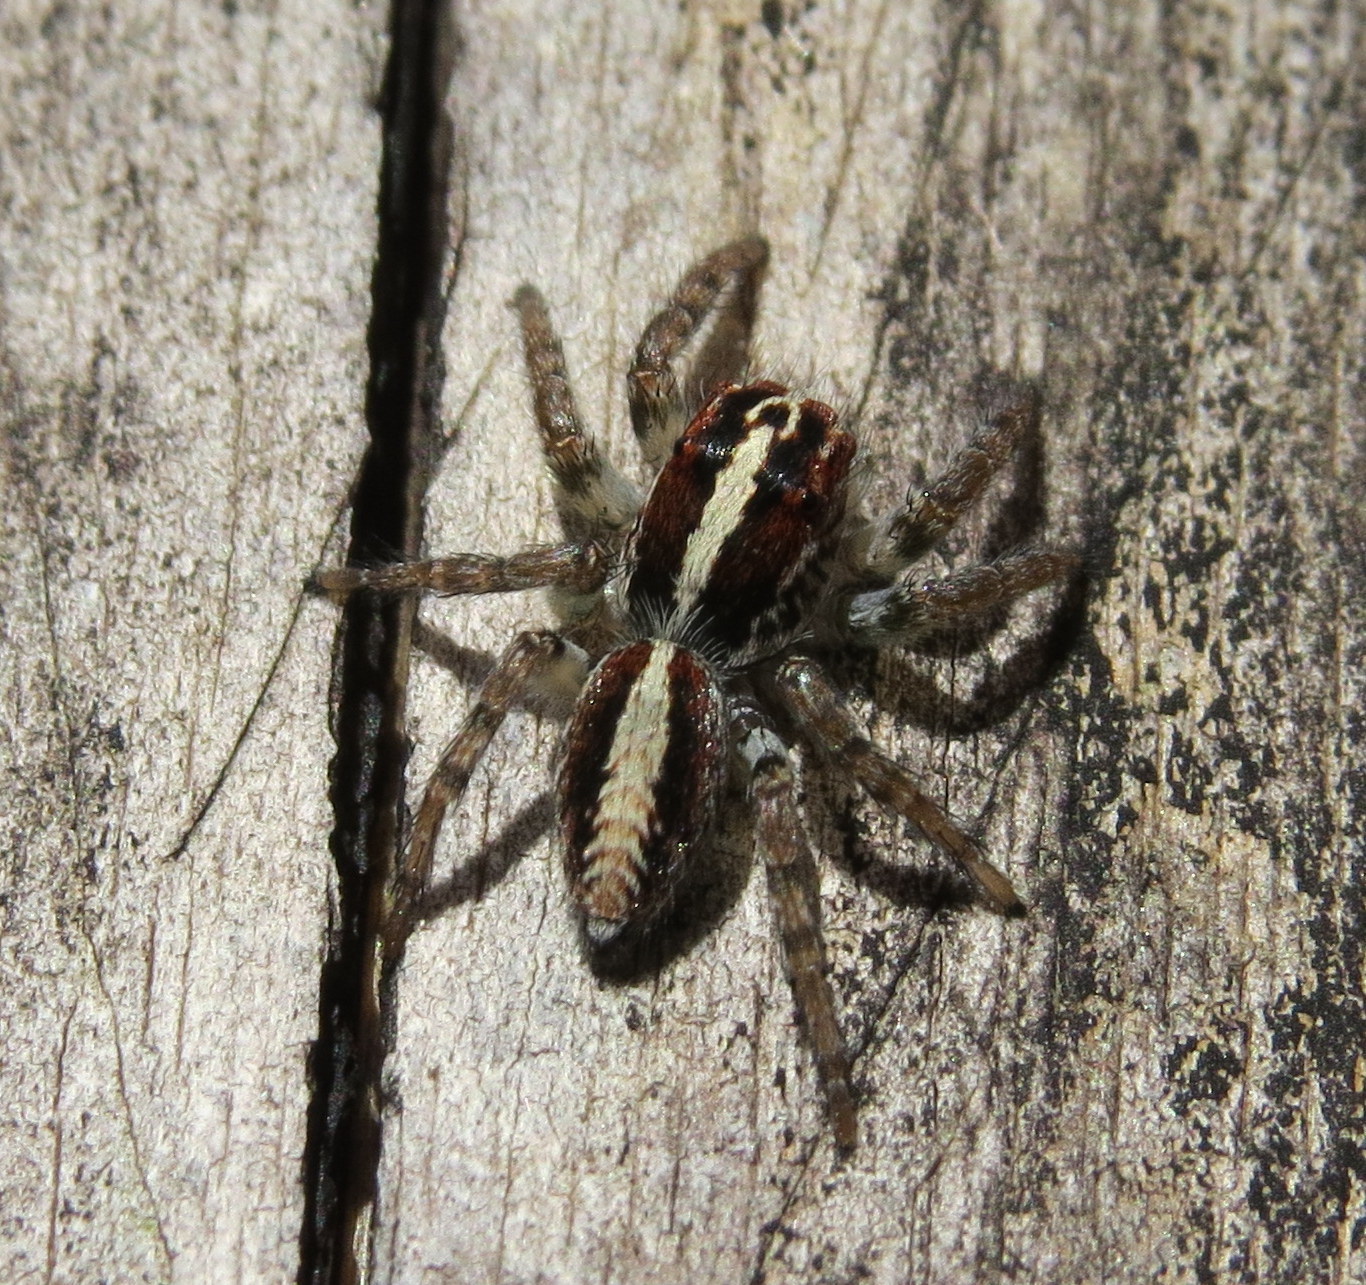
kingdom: Animalia
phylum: Arthropoda
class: Arachnida
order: Araneae
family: Salticidae
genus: Frigga
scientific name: Frigga crocuta
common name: Jumping spiders
